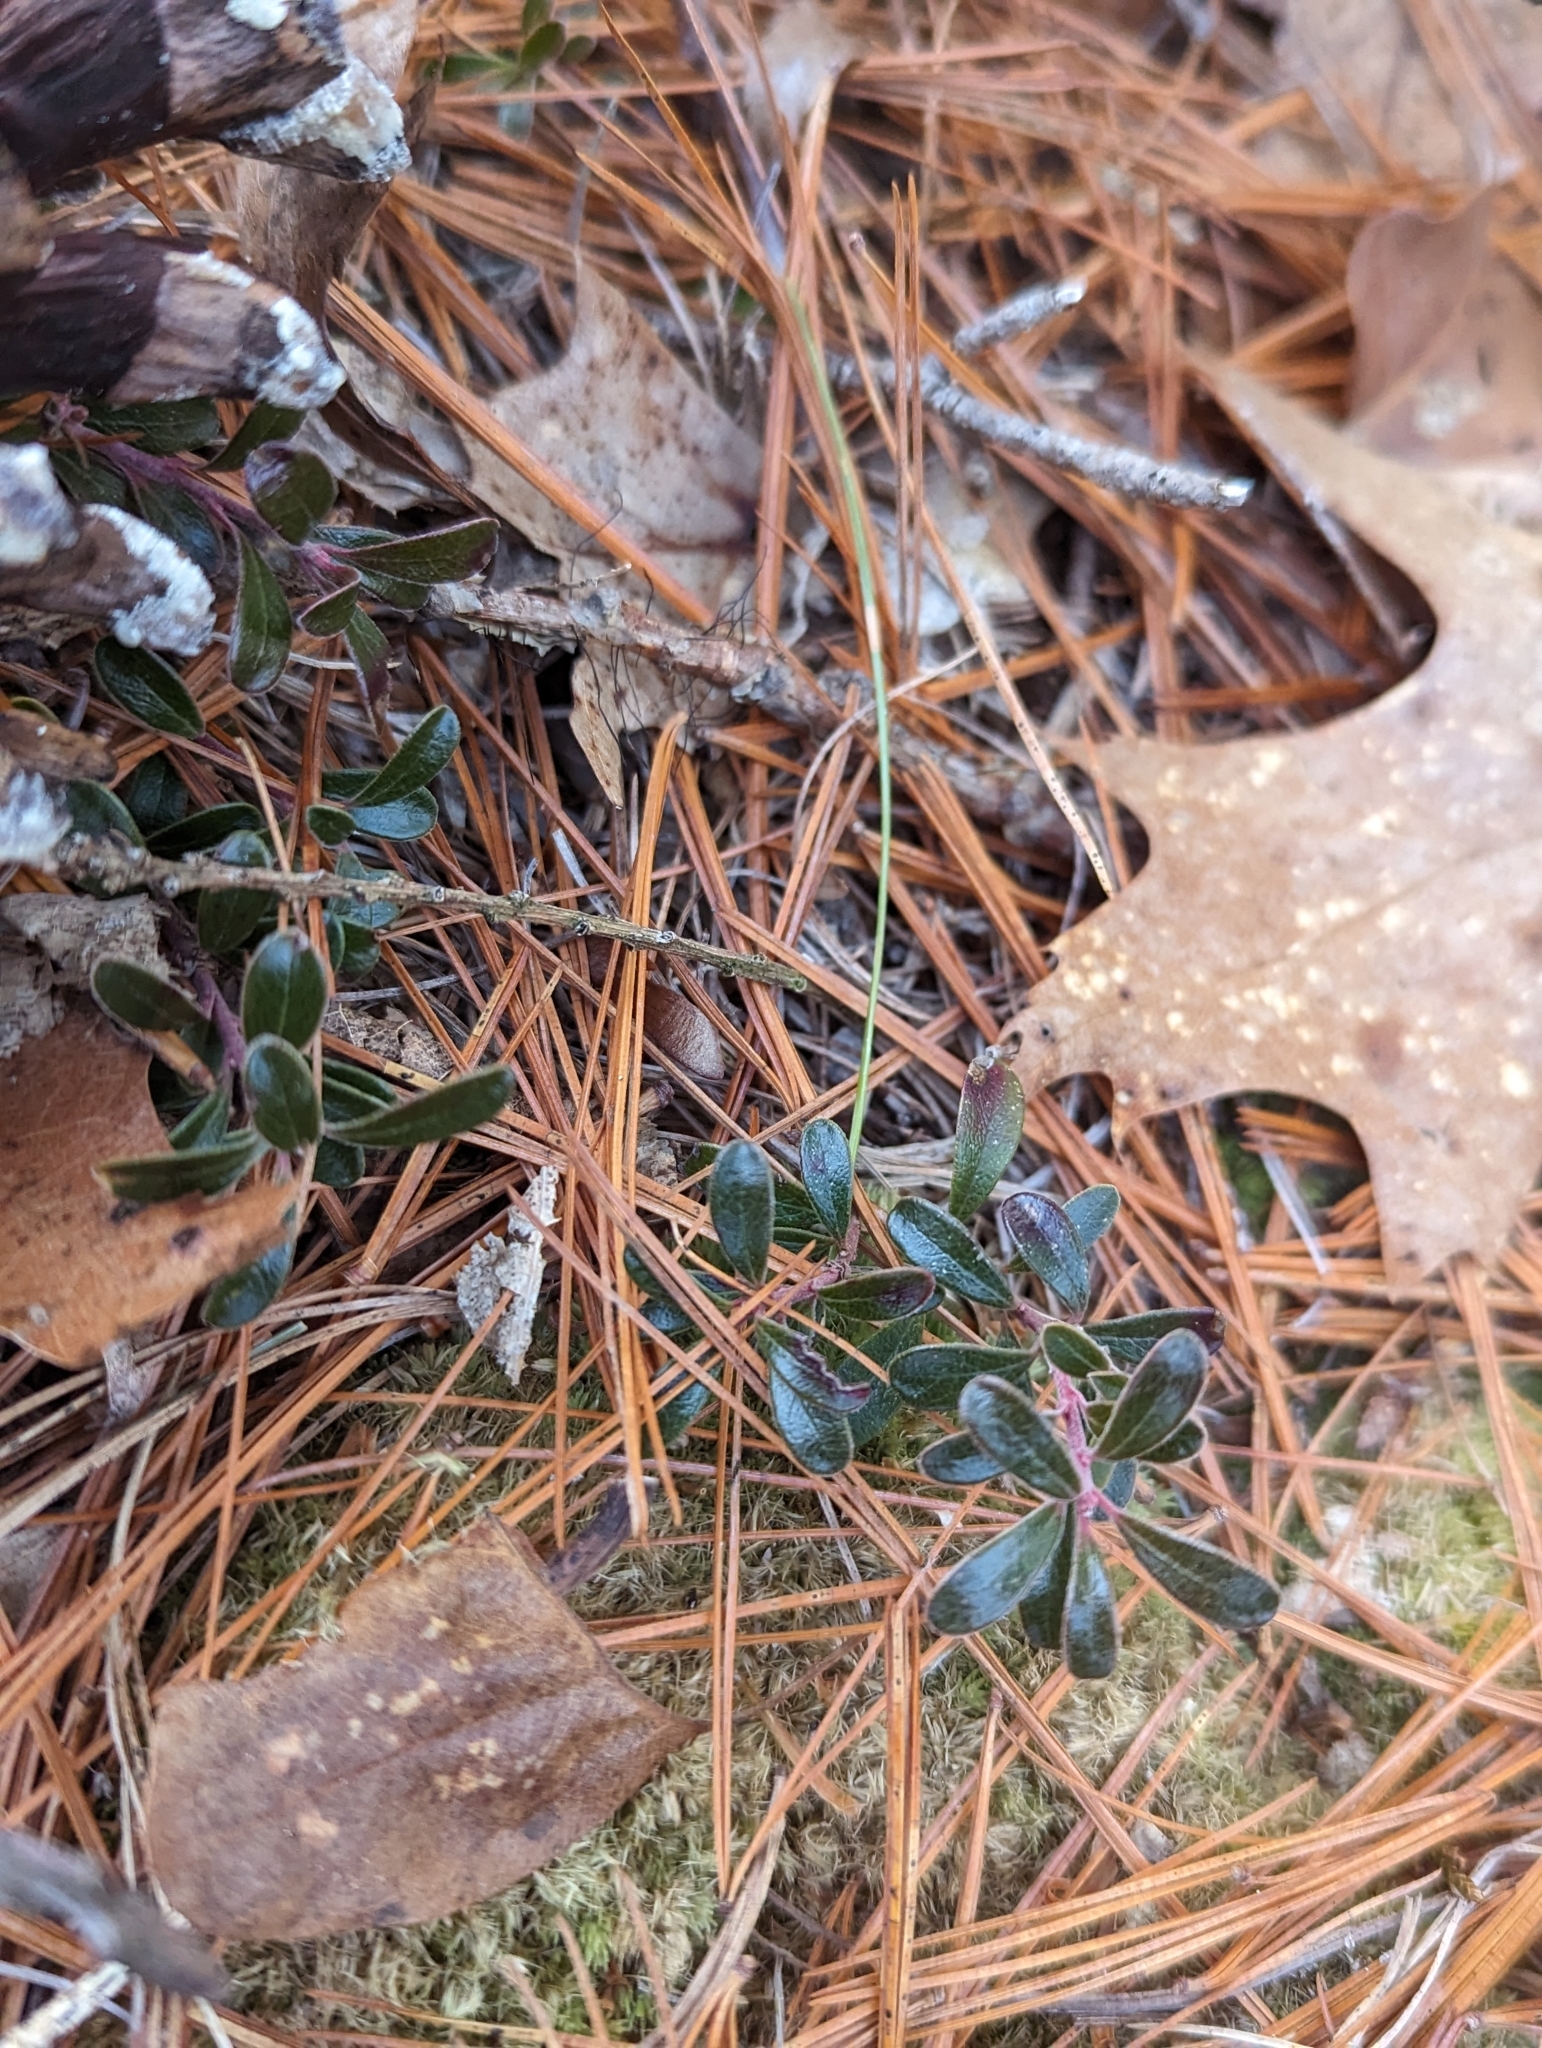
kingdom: Plantae
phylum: Tracheophyta
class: Magnoliopsida
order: Ericales
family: Ericaceae
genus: Arctostaphylos
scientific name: Arctostaphylos uva-ursi
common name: Bearberry
